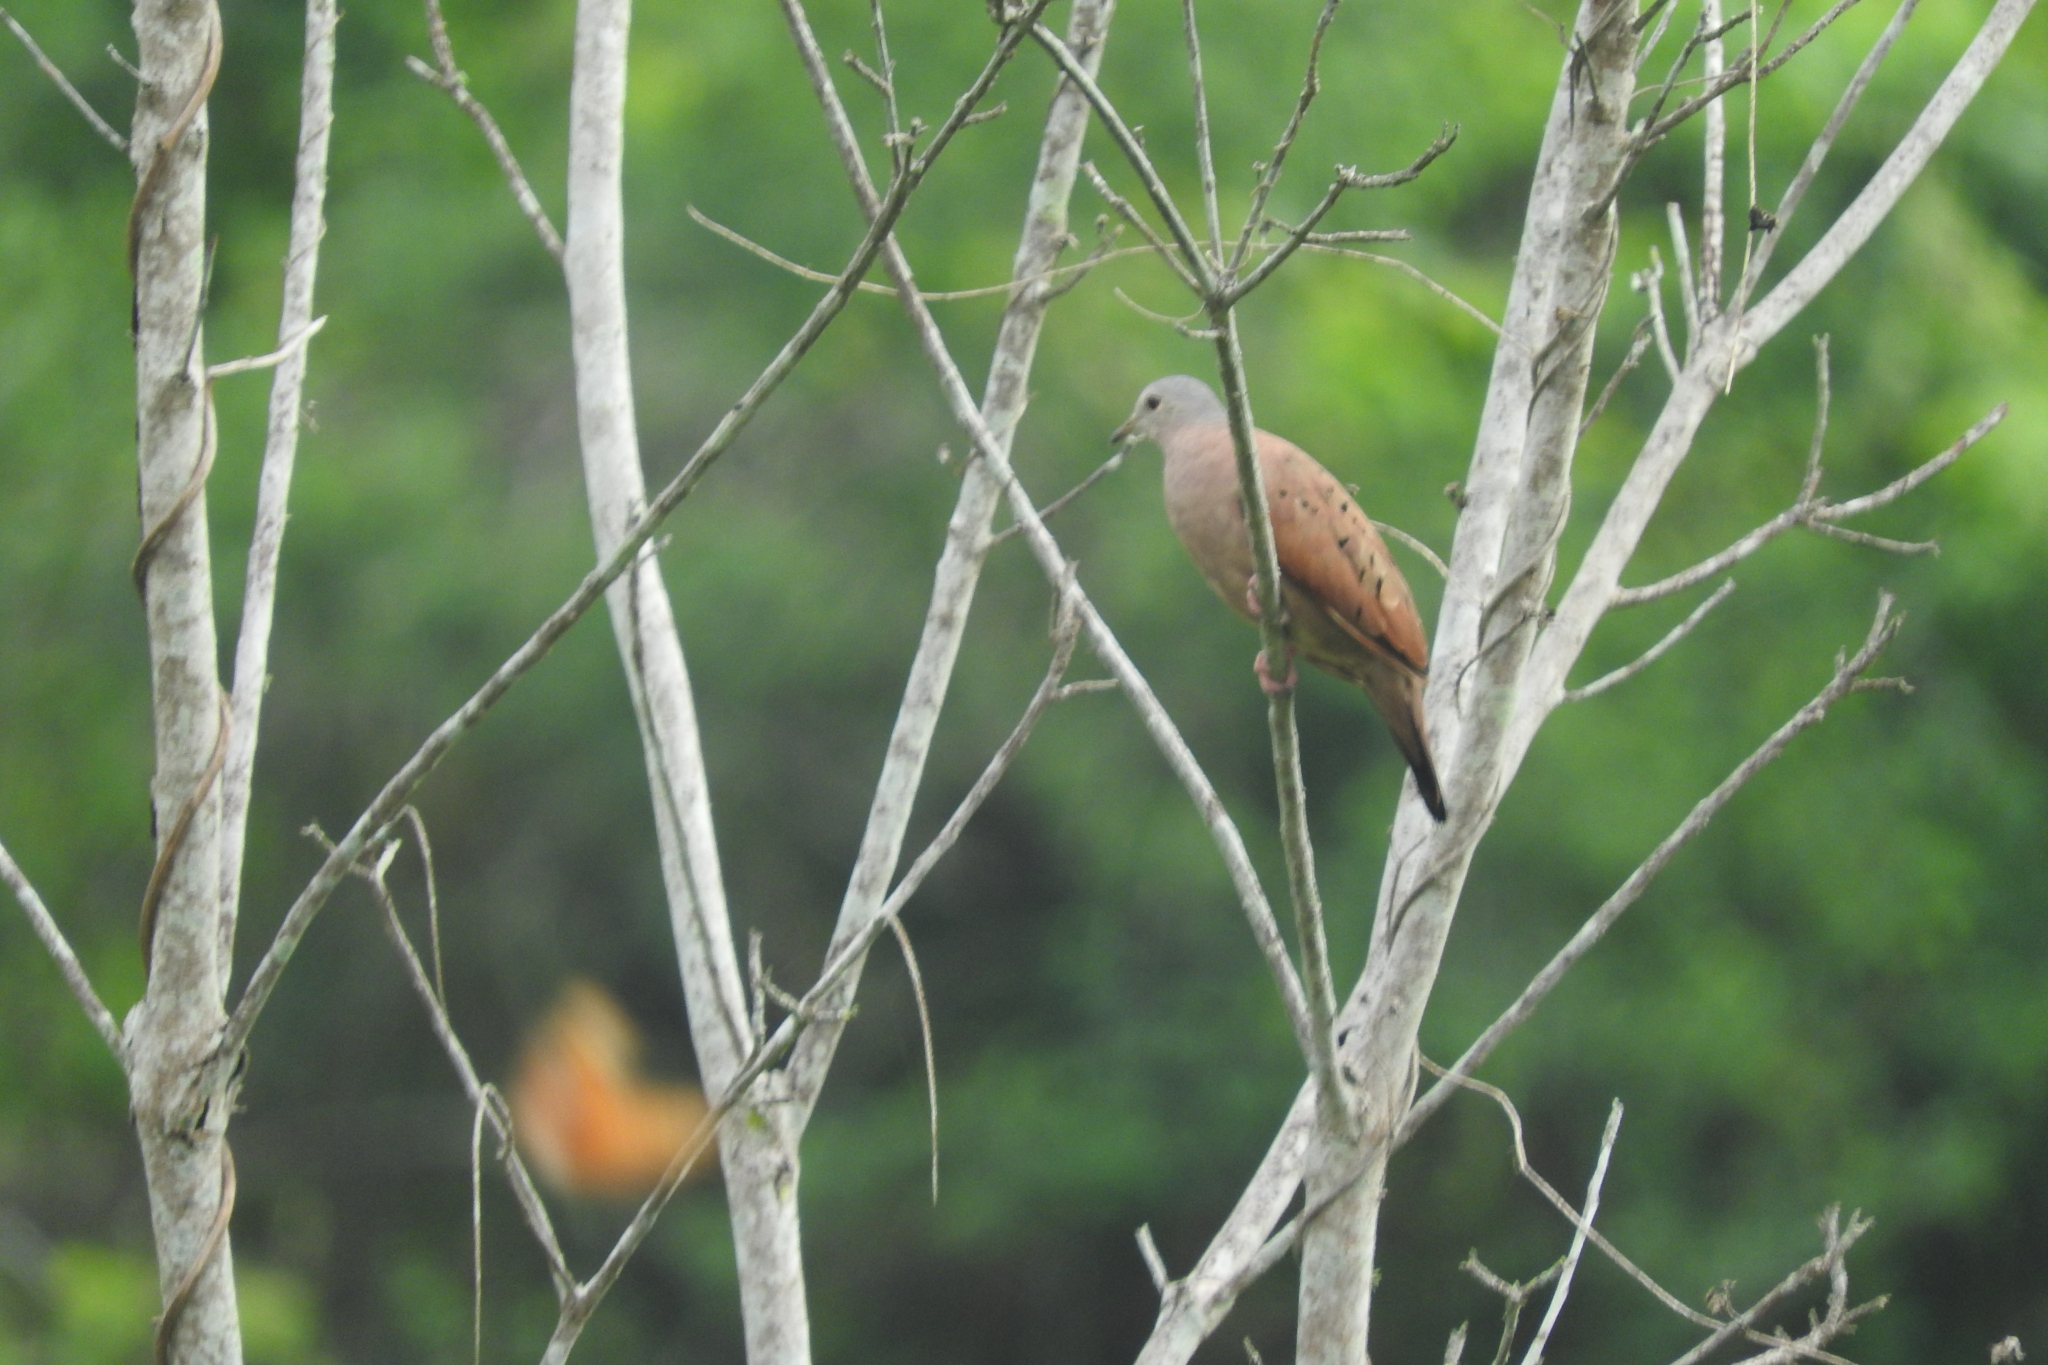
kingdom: Animalia
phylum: Chordata
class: Aves
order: Columbiformes
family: Columbidae
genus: Columbina
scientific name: Columbina talpacoti
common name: Ruddy ground dove
